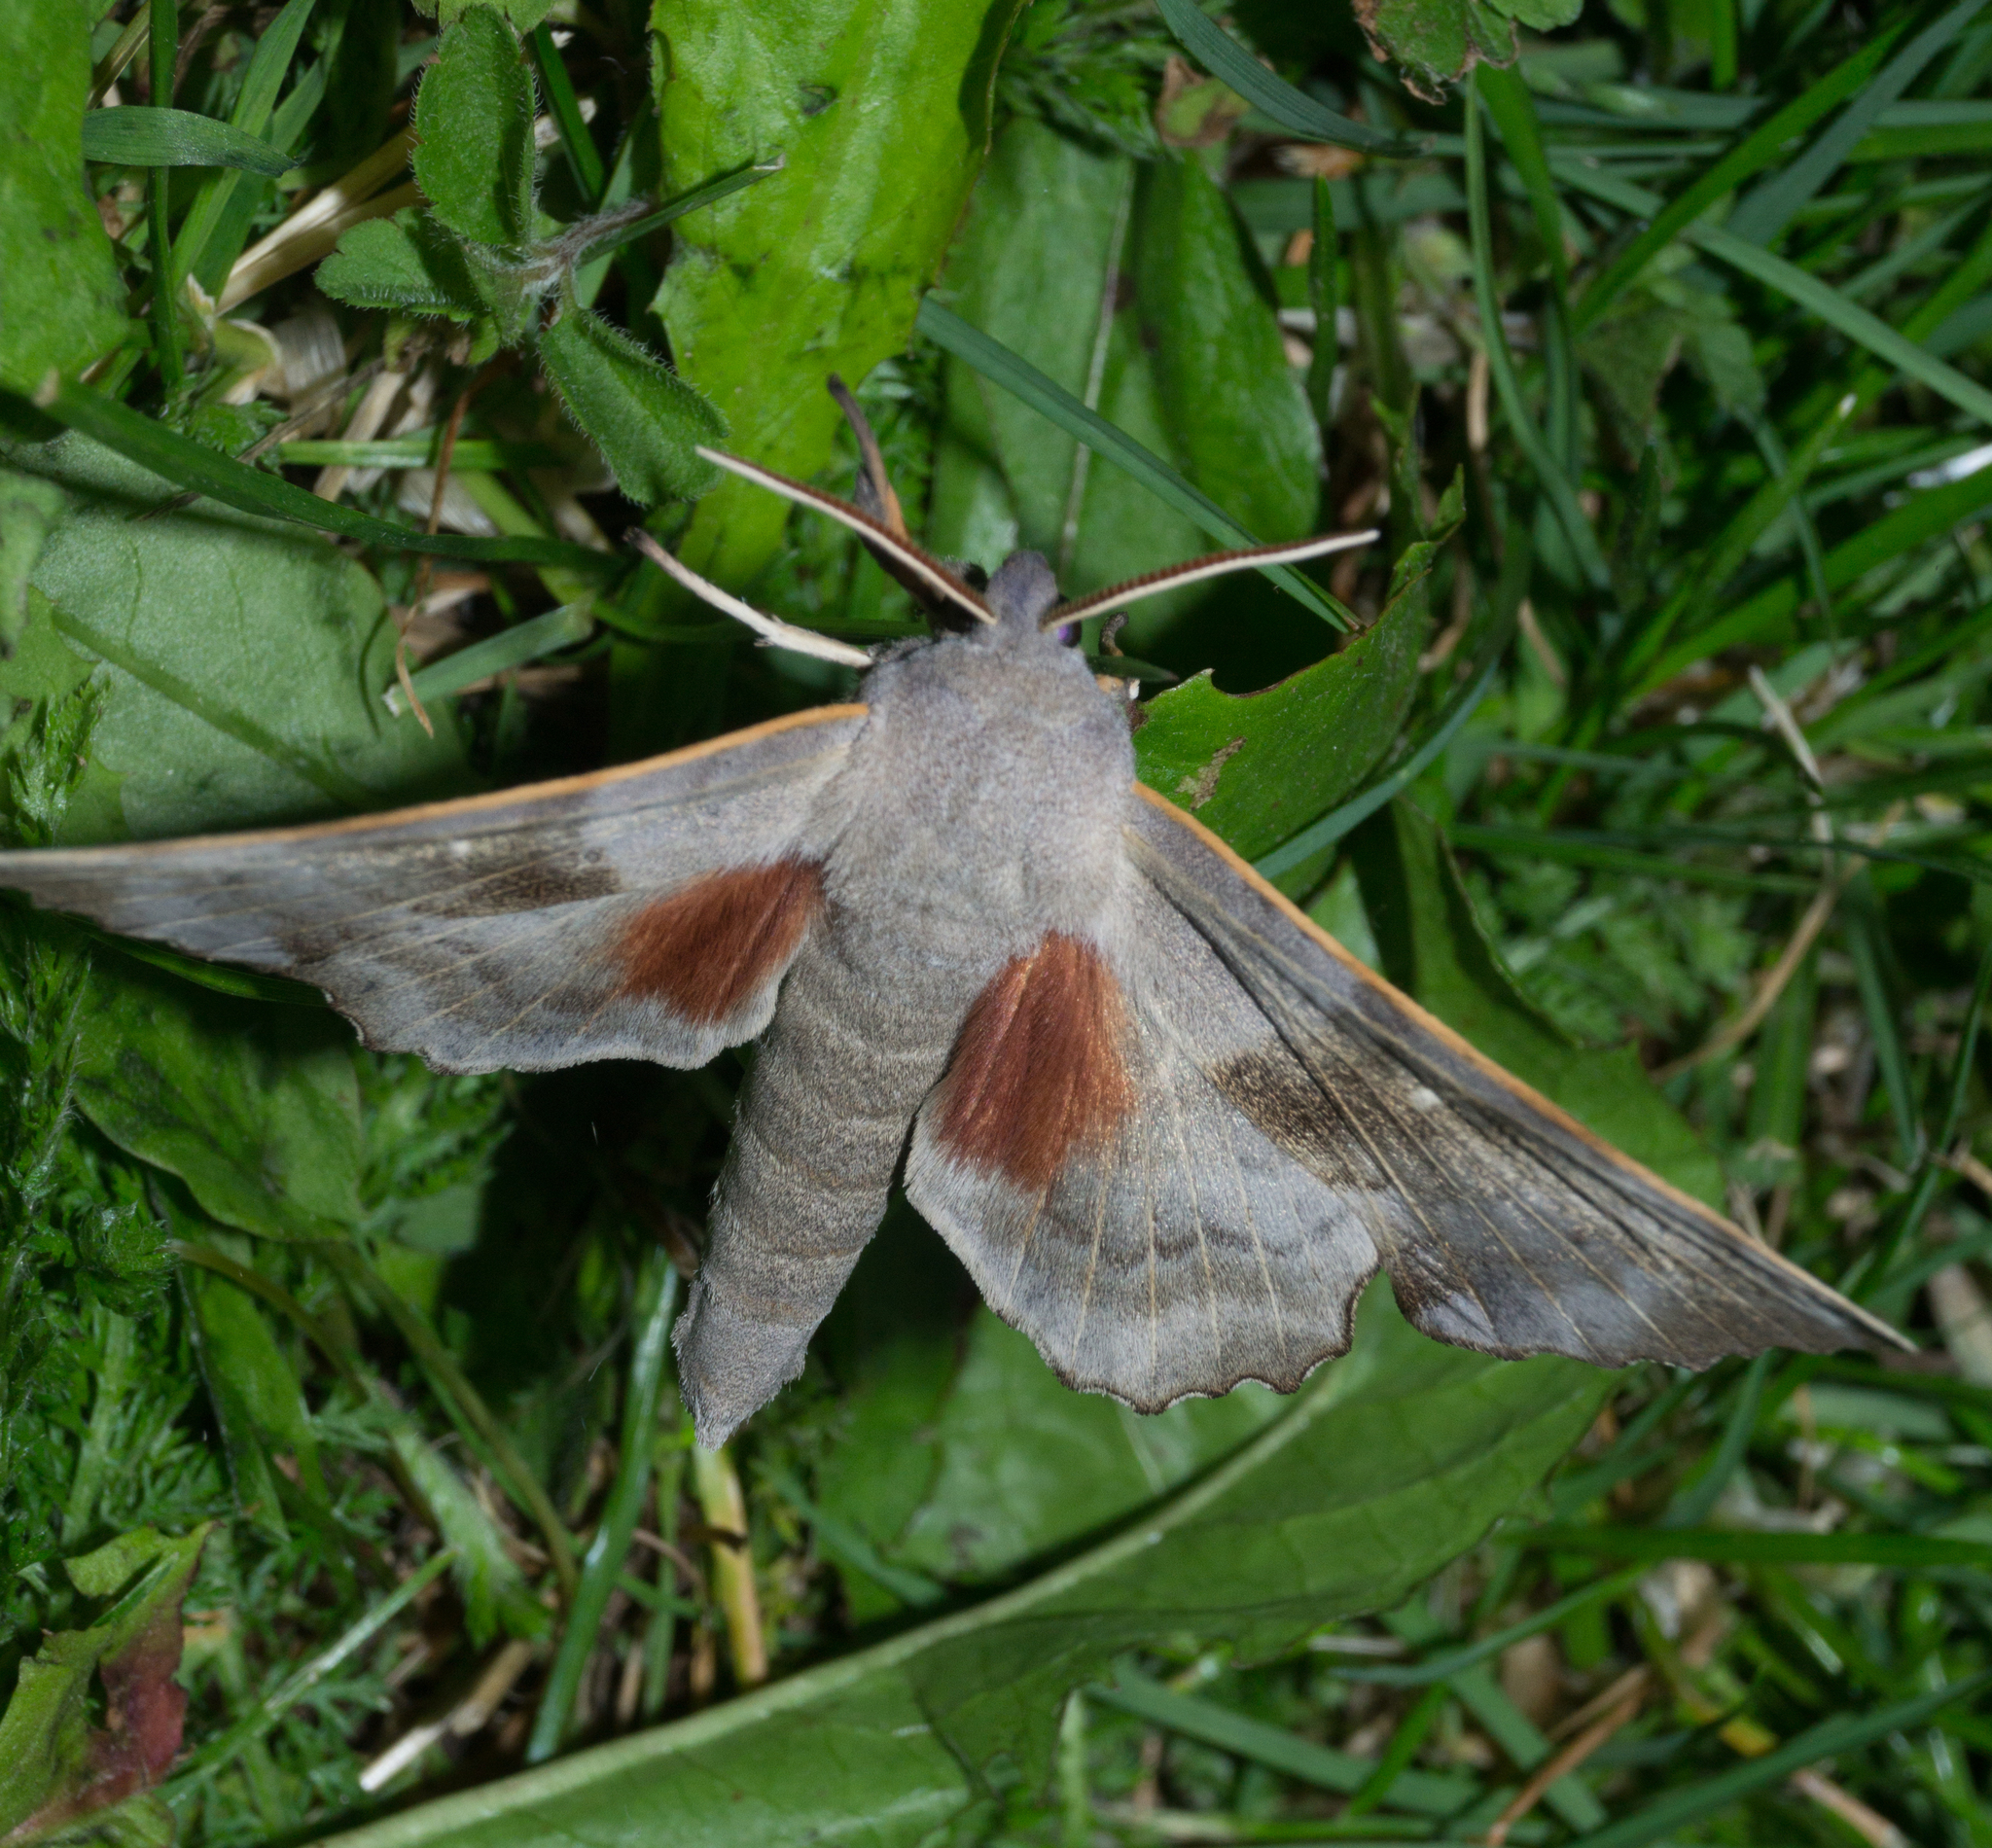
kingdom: Animalia
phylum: Arthropoda
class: Insecta
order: Lepidoptera
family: Sphingidae
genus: Laothoe
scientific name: Laothoe populi
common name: Poplar hawk-moth
